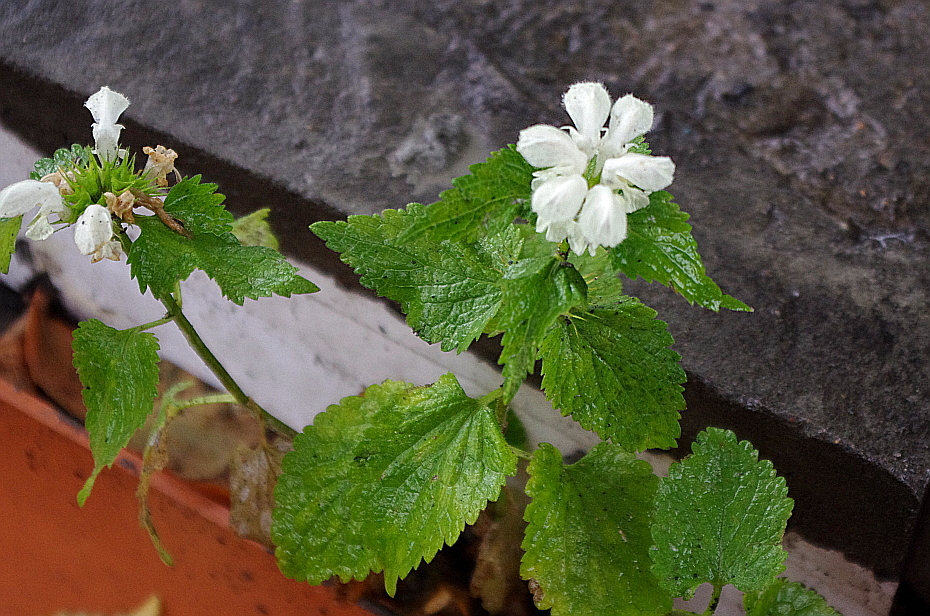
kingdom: Plantae
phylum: Tracheophyta
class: Magnoliopsida
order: Lamiales
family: Lamiaceae
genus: Lamium
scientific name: Lamium album
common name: White dead-nettle
